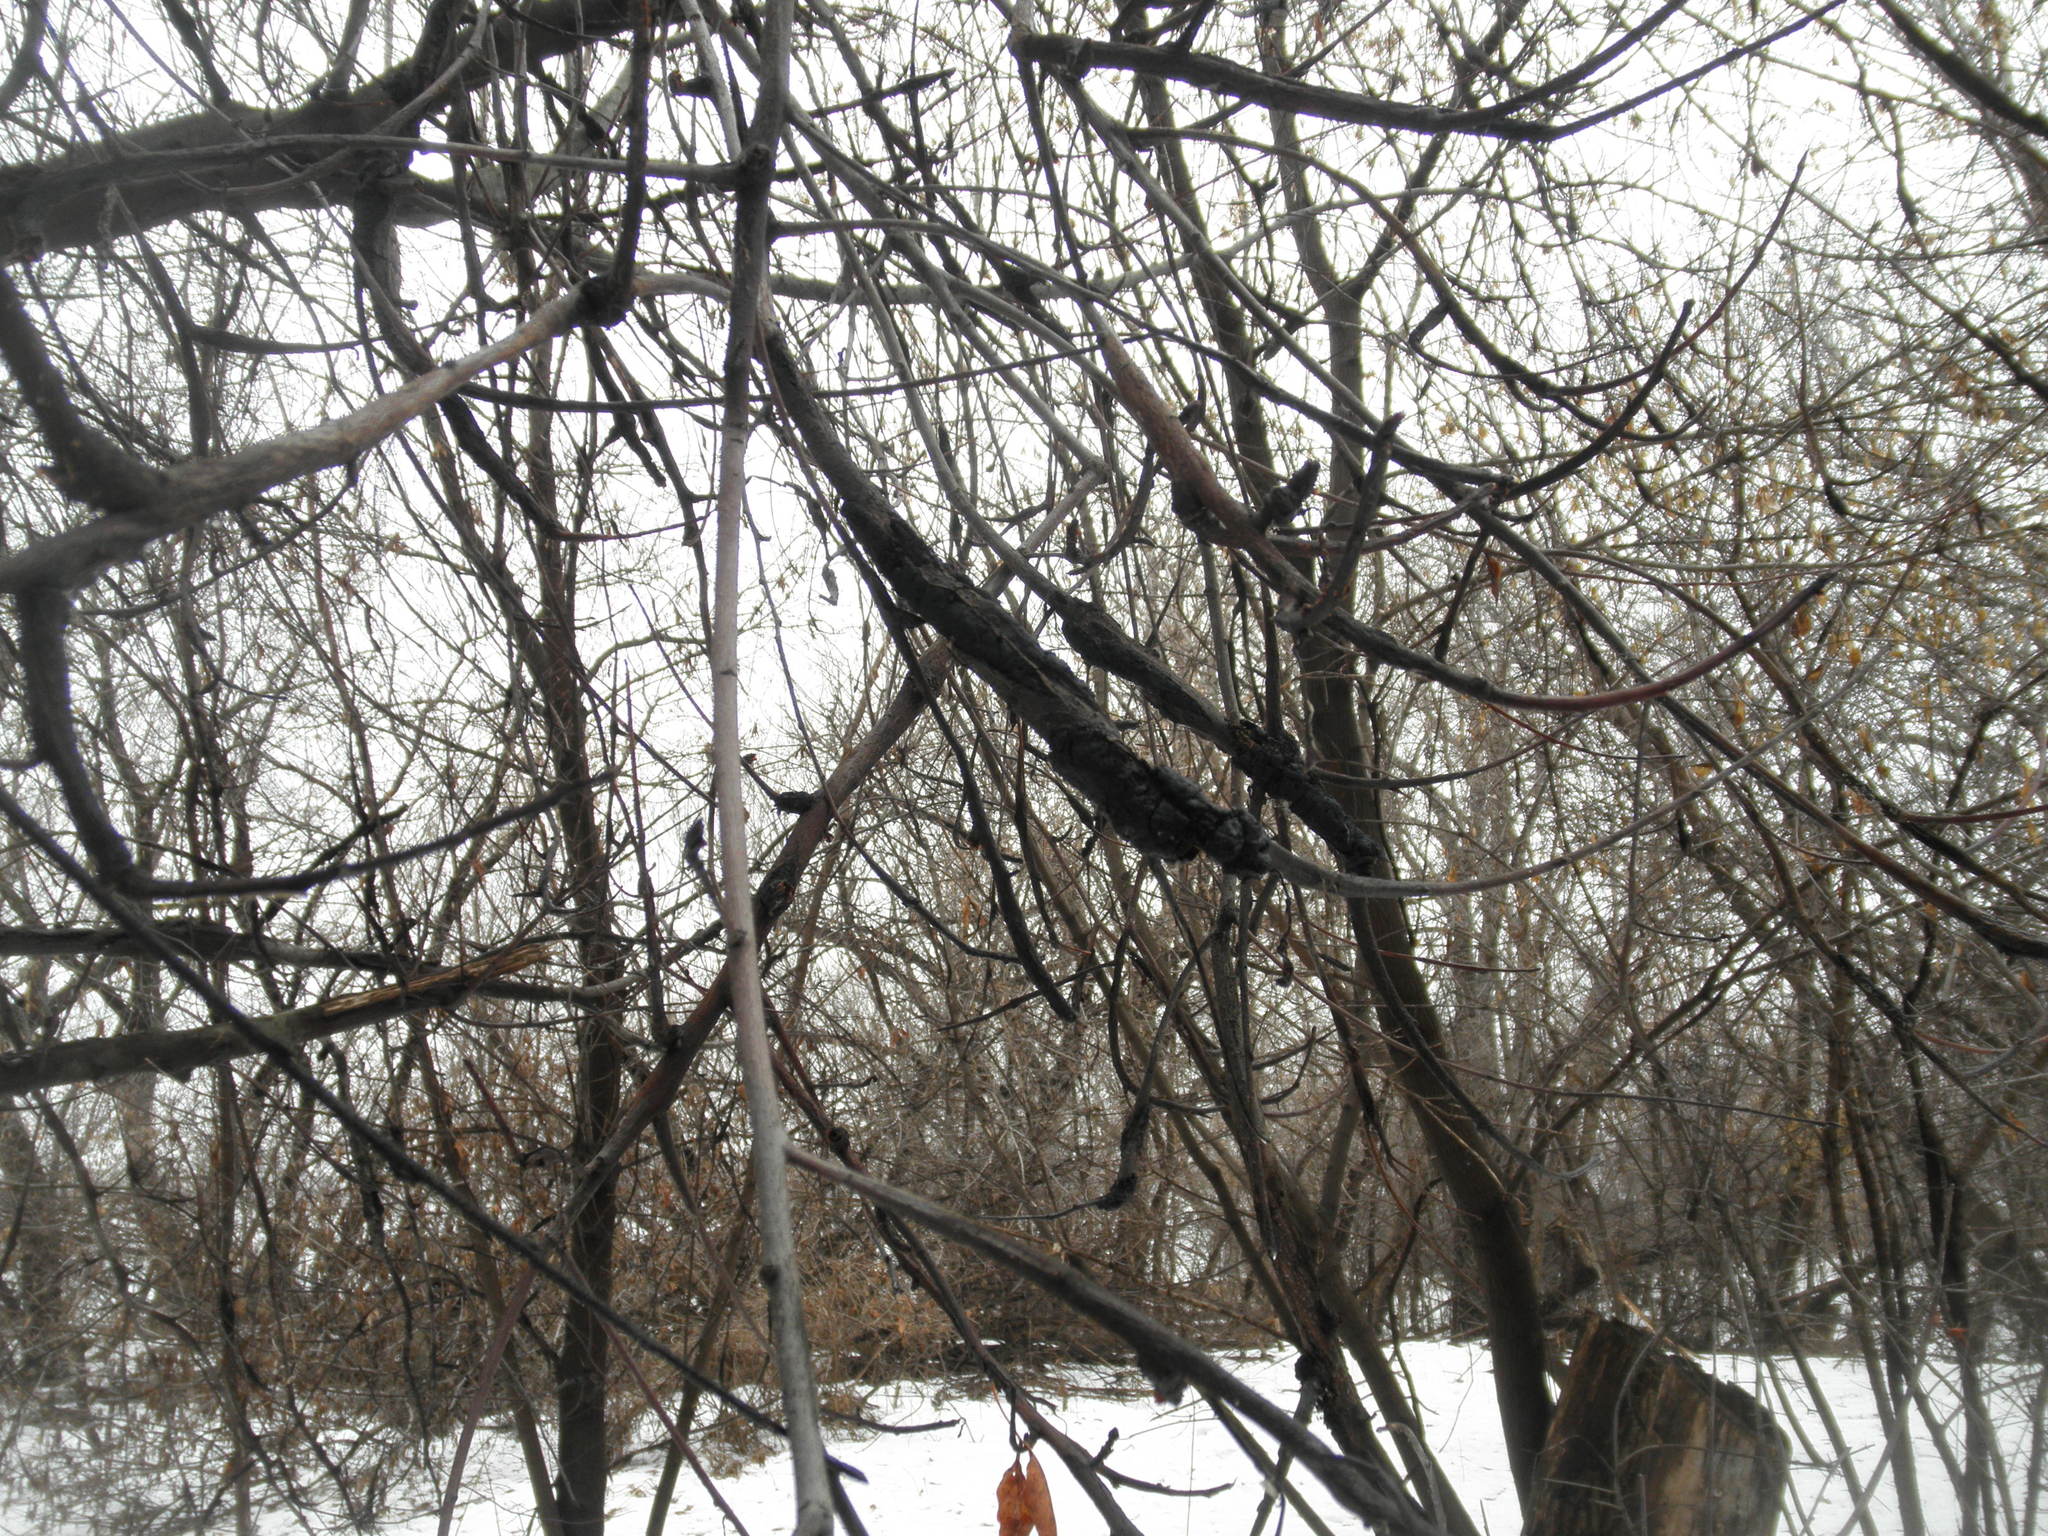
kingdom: Fungi
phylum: Ascomycota
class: Dothideomycetes
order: Venturiales
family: Venturiaceae
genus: Apiosporina
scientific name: Apiosporina morbosa
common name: Black knot
